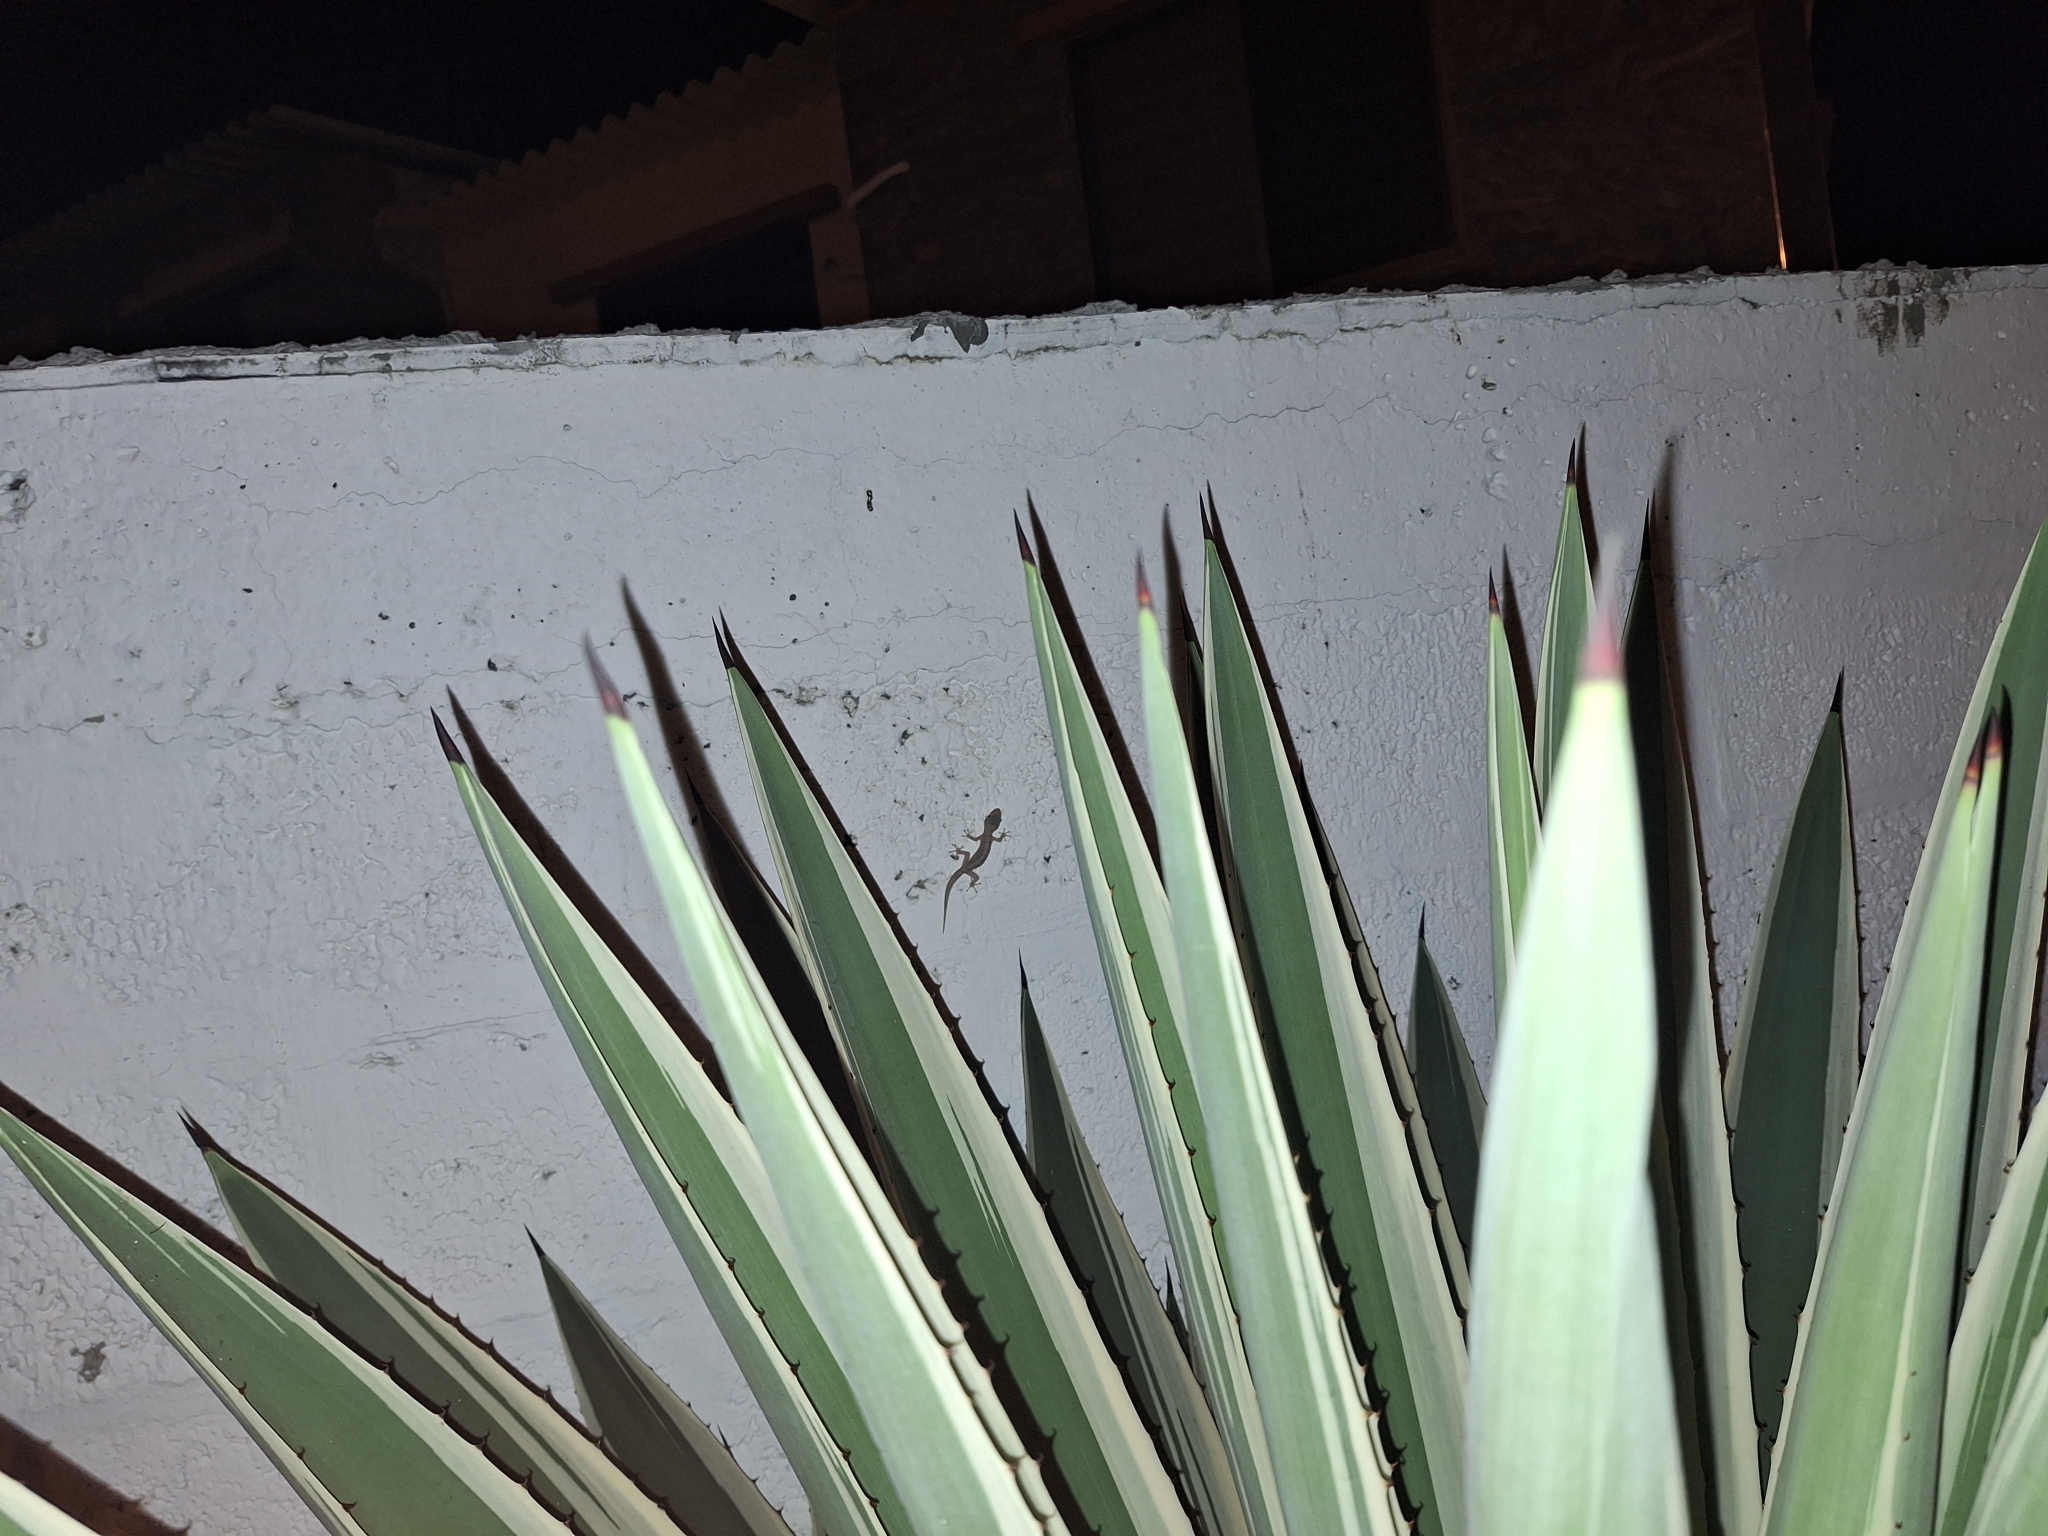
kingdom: Animalia
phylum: Chordata
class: Squamata
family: Phyllodactylidae
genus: Phyllodactylus
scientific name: Phyllodactylus reissii
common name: Peters' leaf-toed gecko
